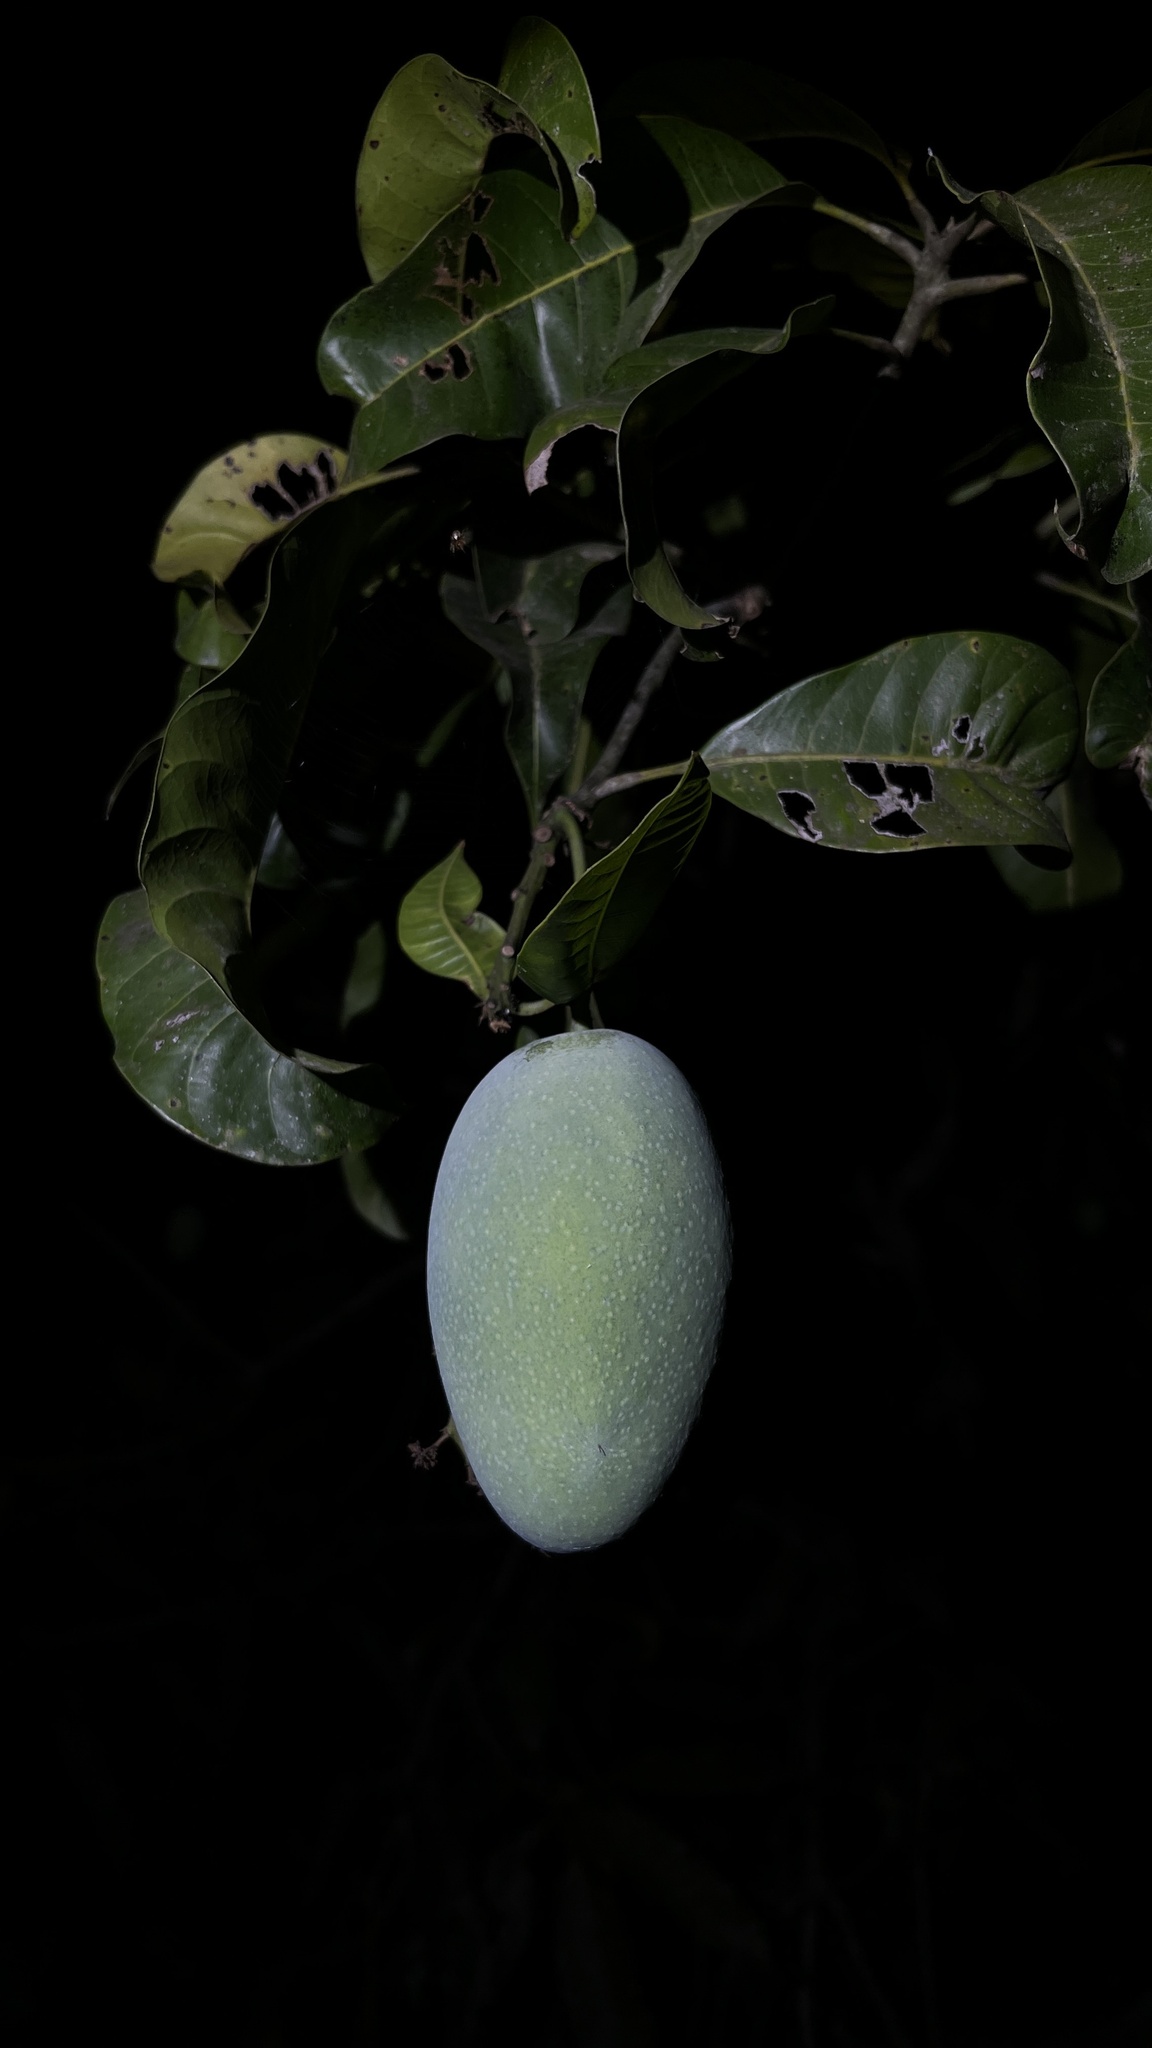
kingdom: Plantae
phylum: Tracheophyta
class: Magnoliopsida
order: Sapindales
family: Anacardiaceae
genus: Mangifera
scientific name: Mangifera indica
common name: Mango
